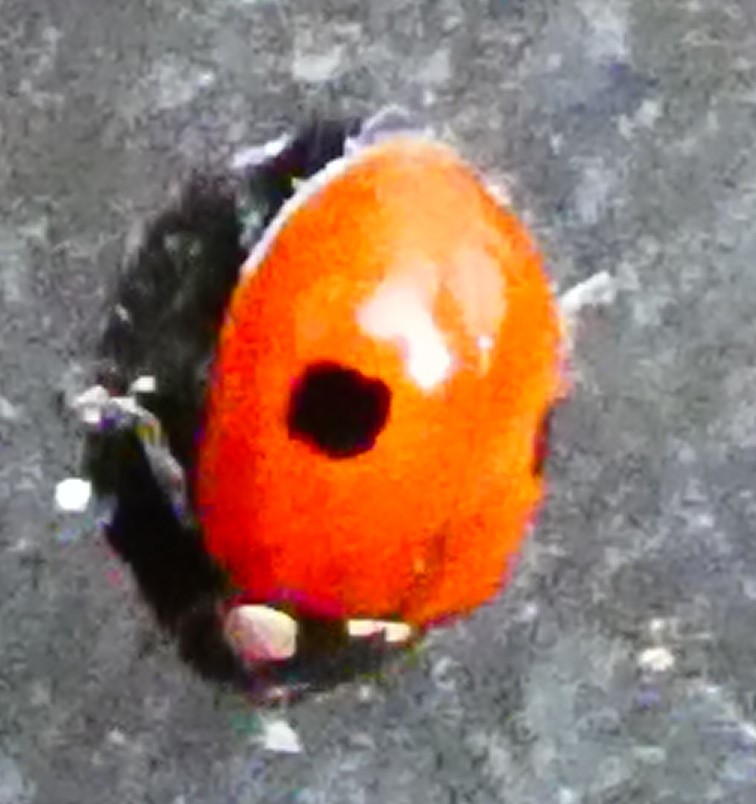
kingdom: Animalia
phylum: Arthropoda
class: Insecta
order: Coleoptera
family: Coccinellidae
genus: Adalia
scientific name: Adalia bipunctata
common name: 2-spot ladybird
